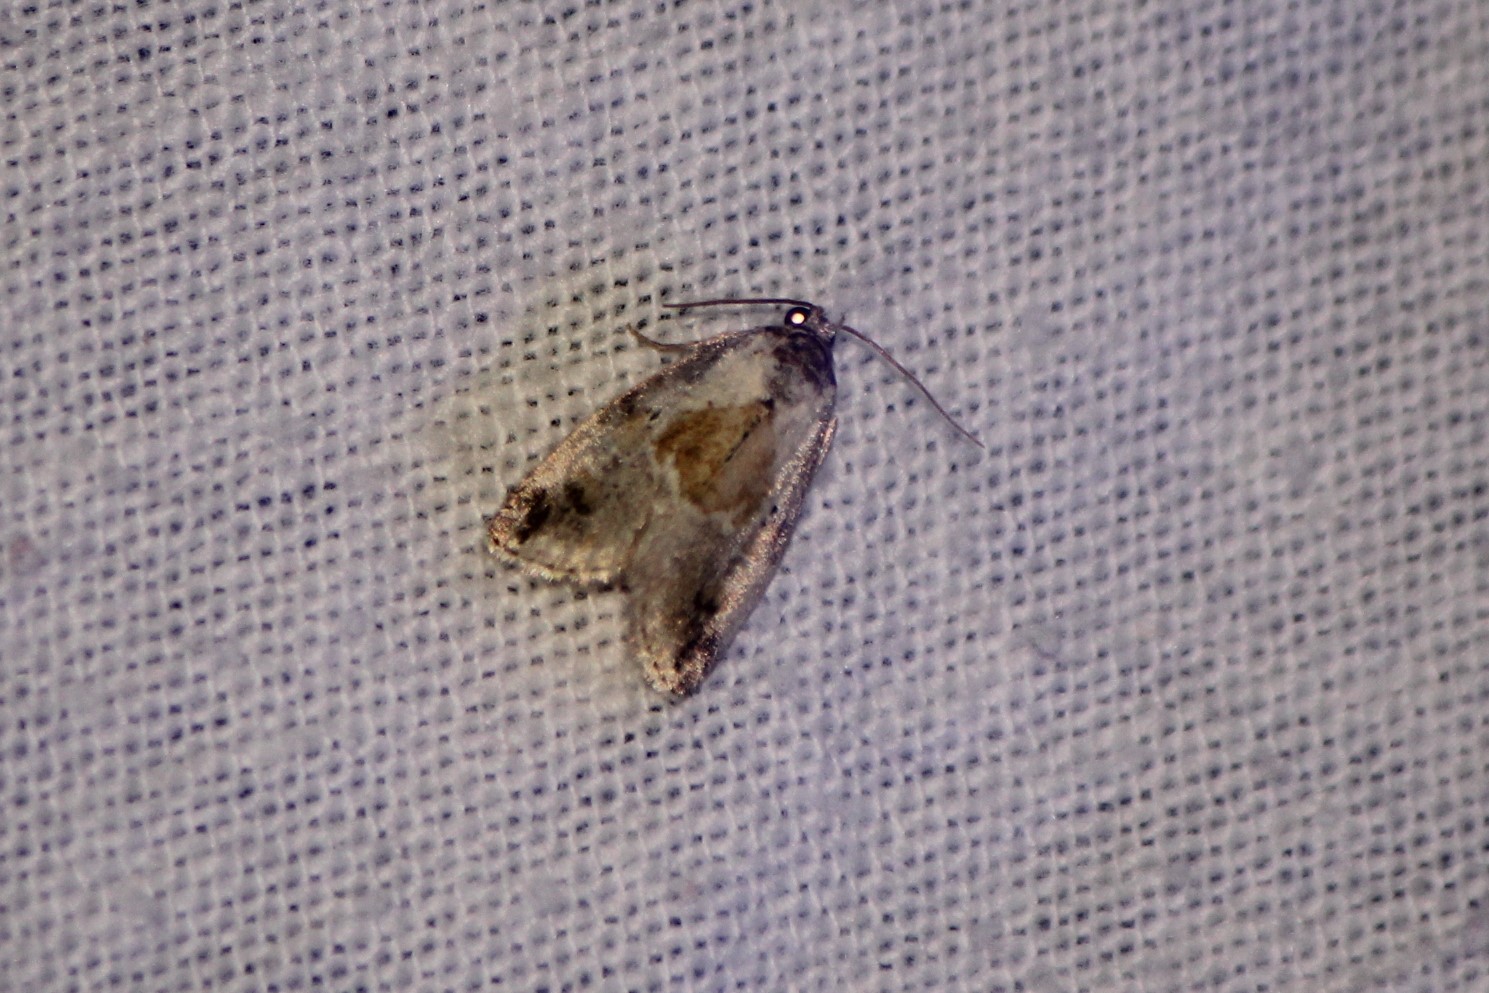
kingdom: Animalia
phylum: Arthropoda
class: Insecta
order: Lepidoptera
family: Noctuidae
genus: Maliattha
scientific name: Maliattha synochitis
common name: Black-dotted glyph
